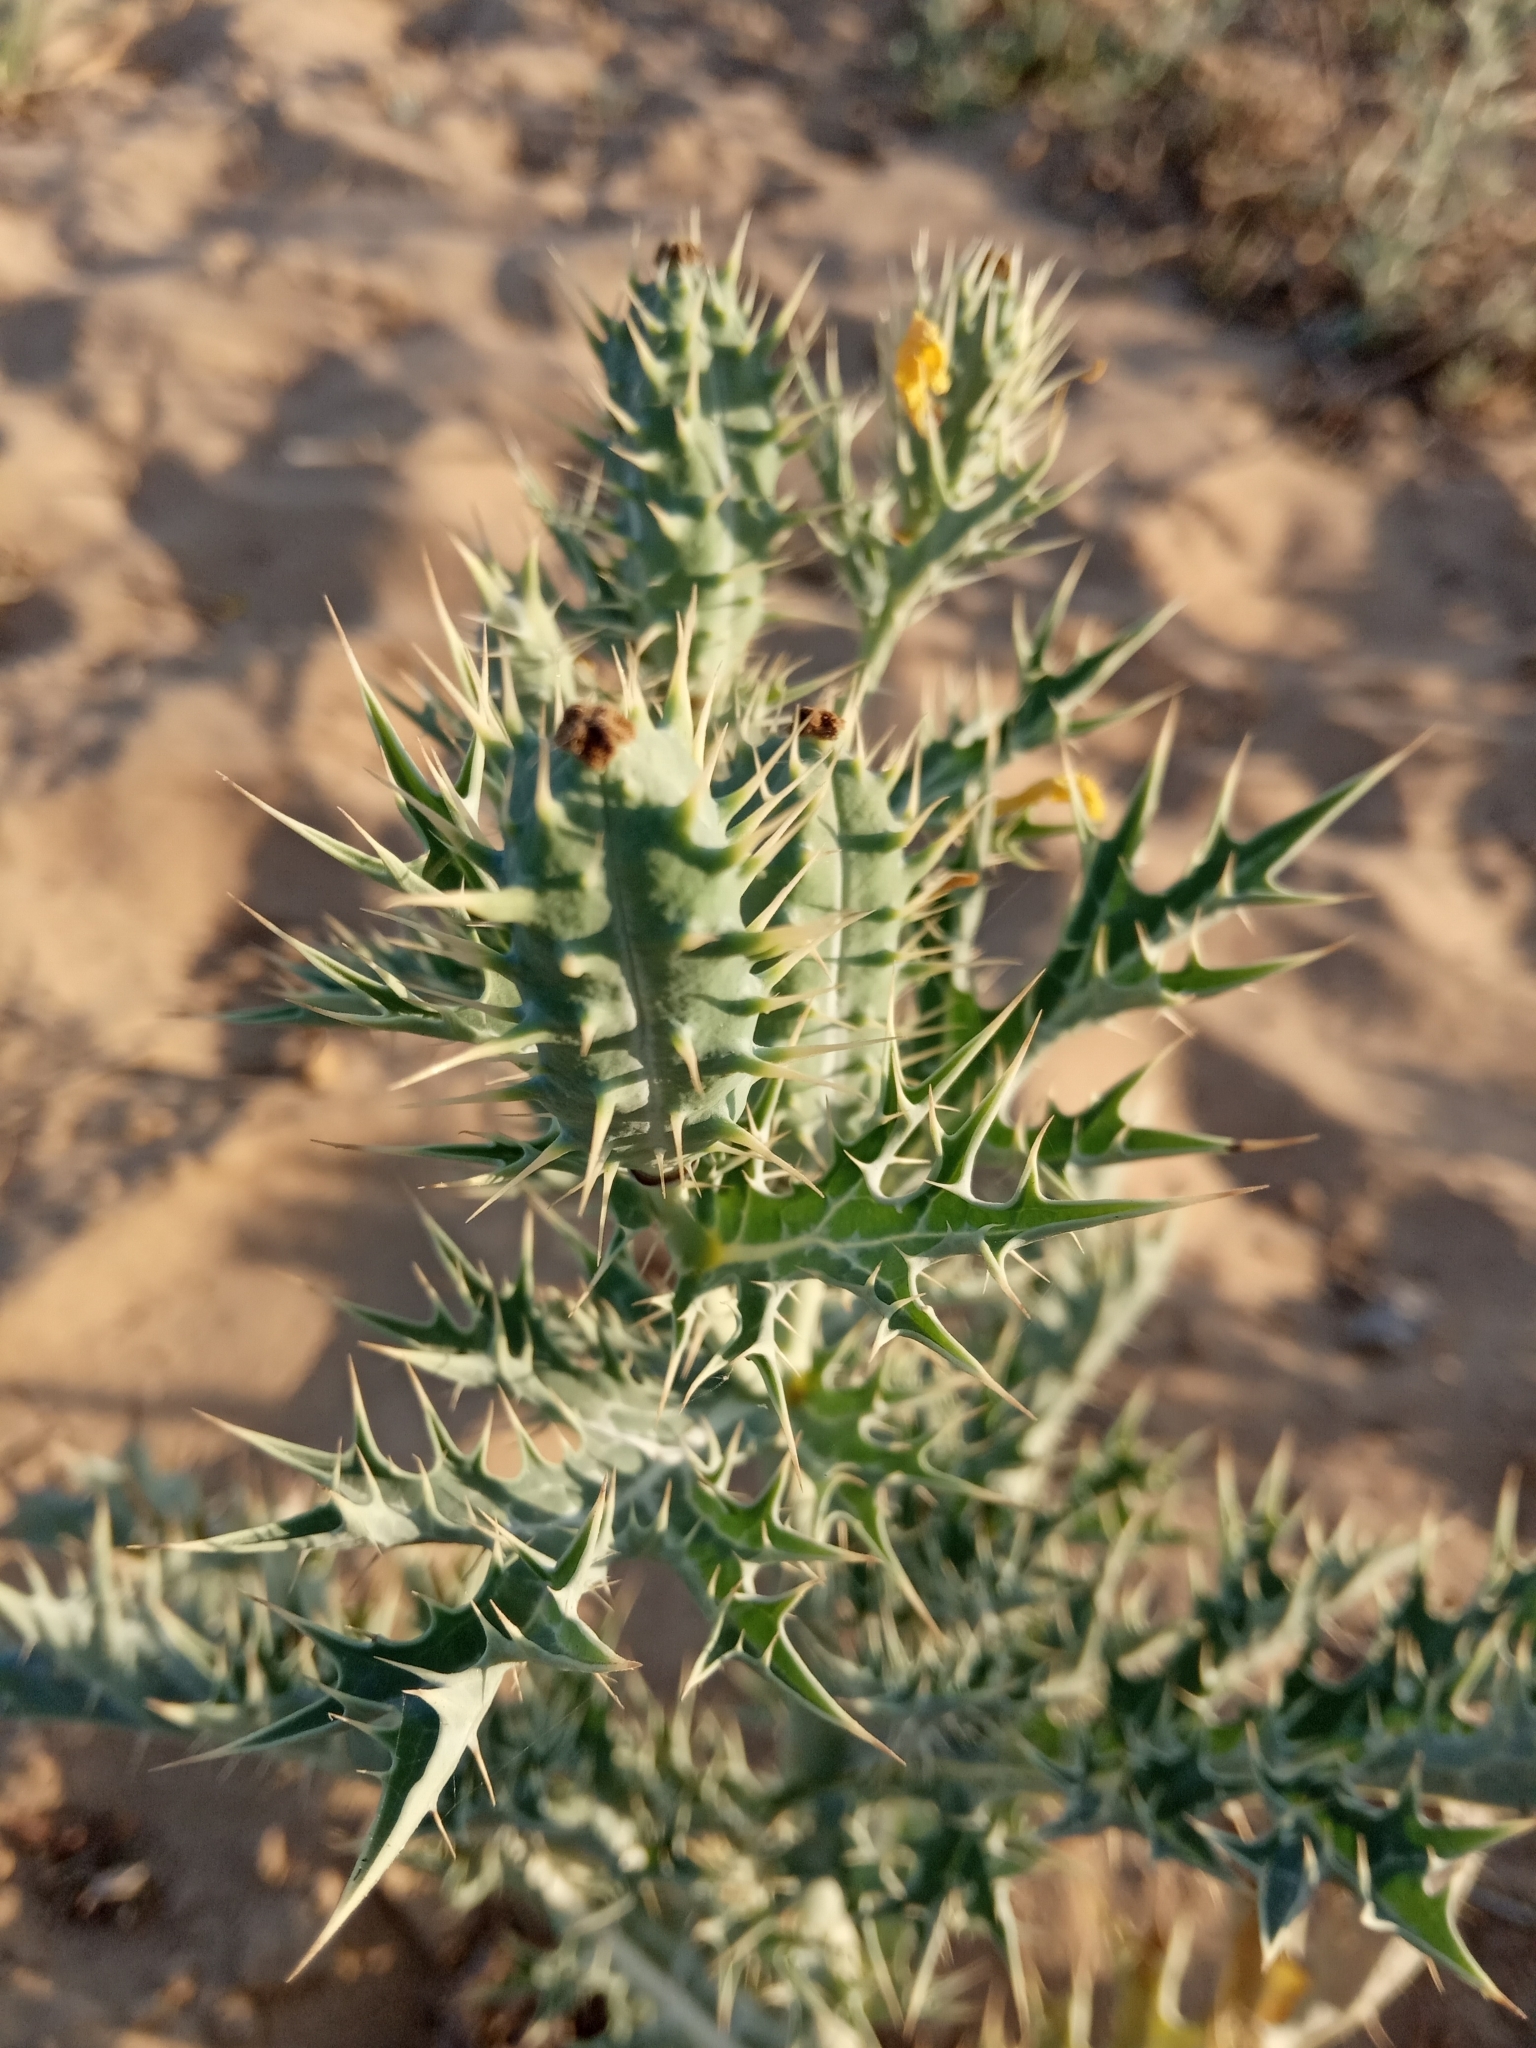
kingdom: Plantae
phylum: Tracheophyta
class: Magnoliopsida
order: Ranunculales
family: Papaveraceae
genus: Argemone
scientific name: Argemone mexicana
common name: Mexican poppy
